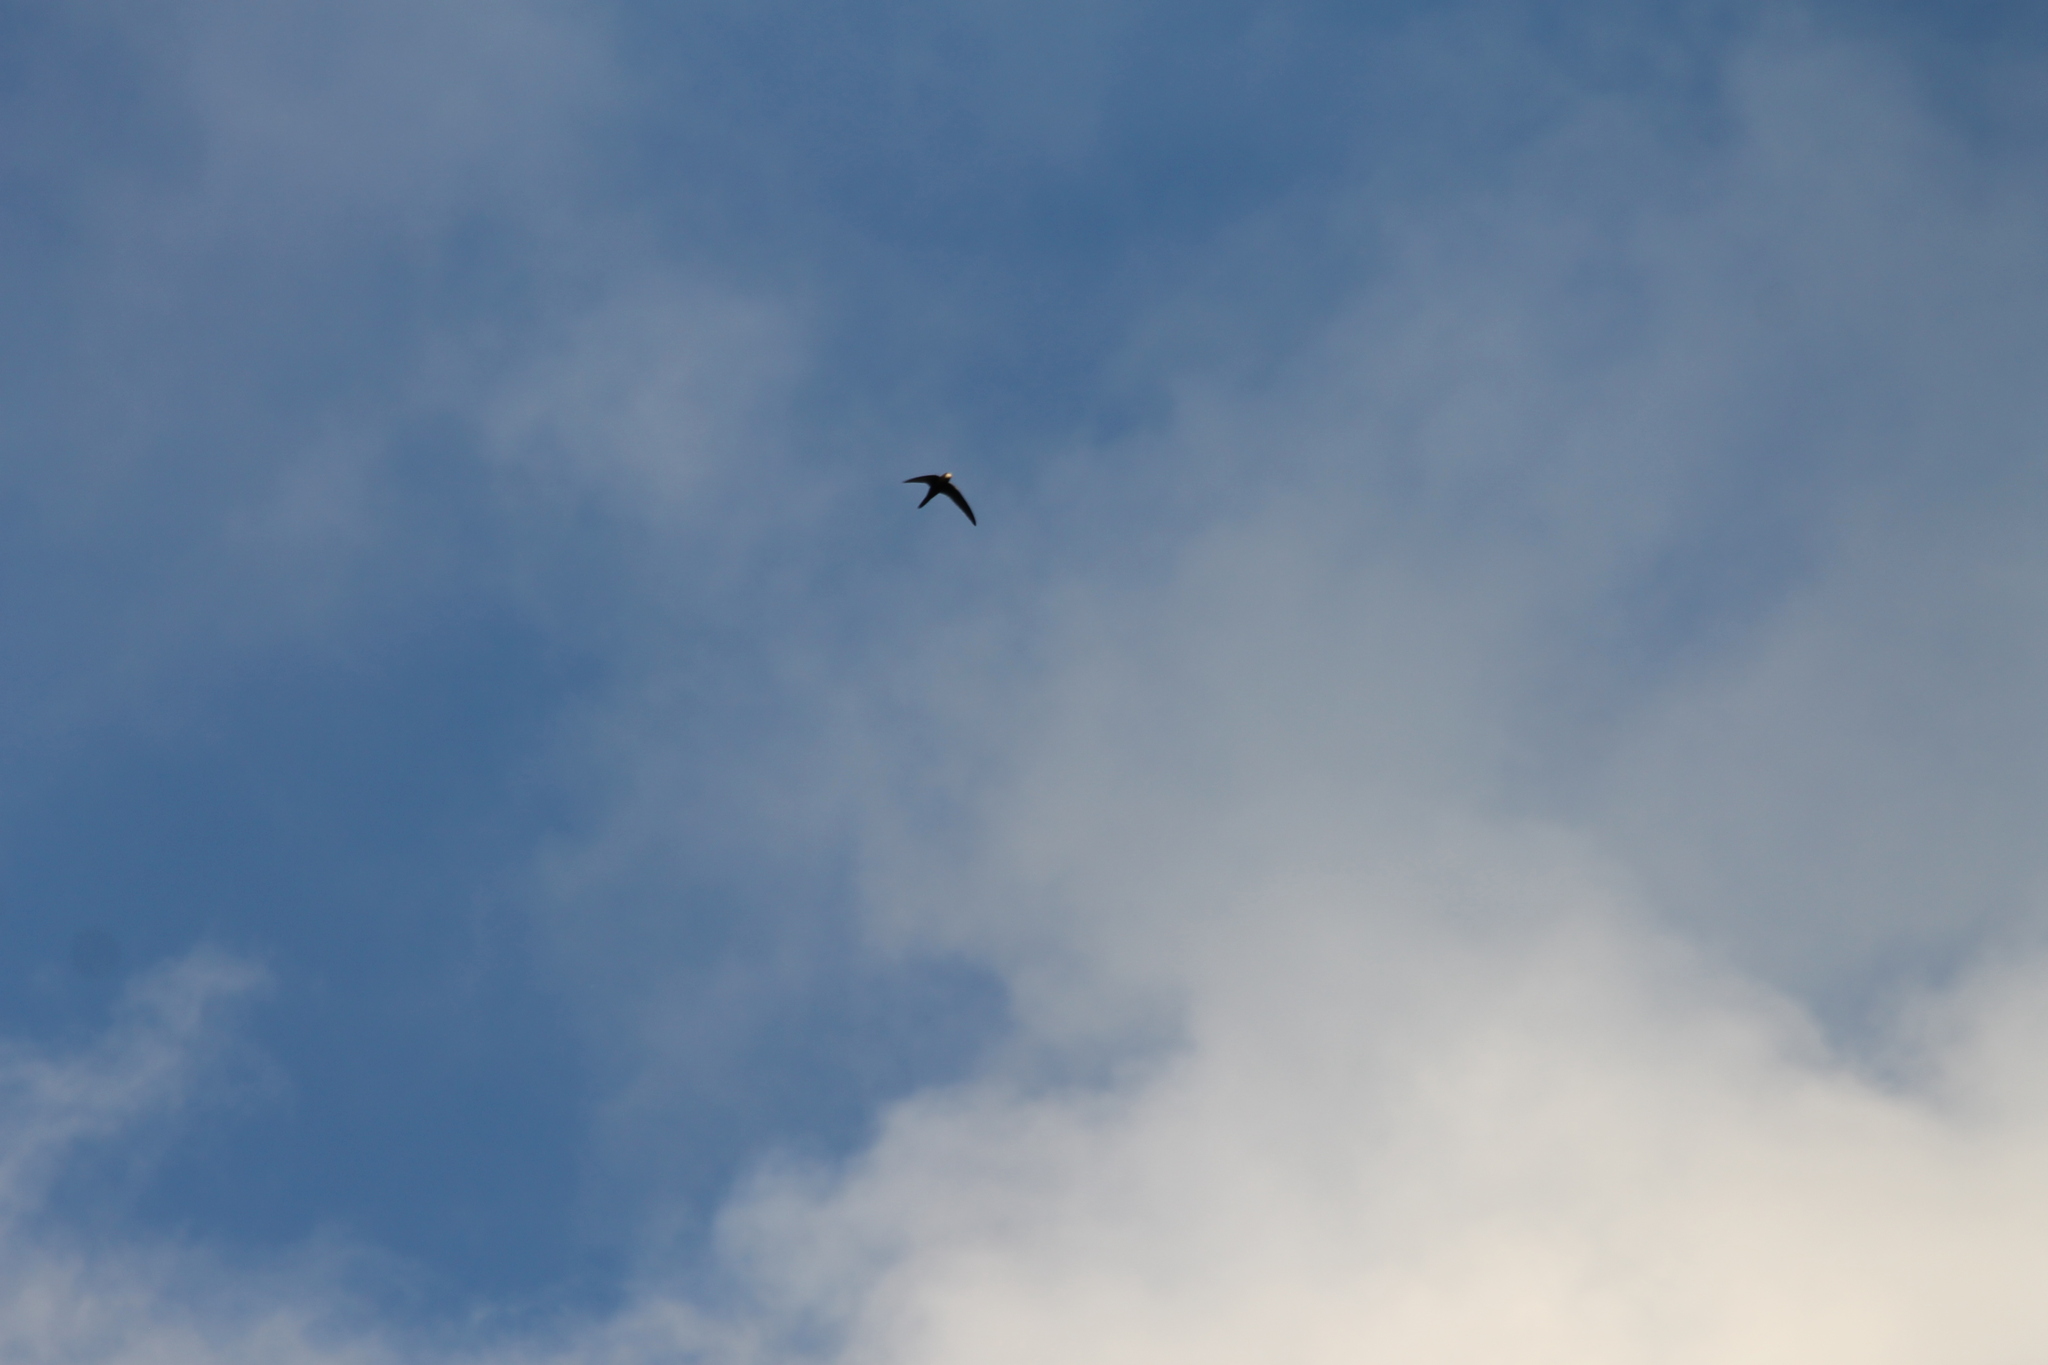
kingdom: Animalia
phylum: Chordata
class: Aves
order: Apodiformes
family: Apodidae
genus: Apus
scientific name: Apus apus
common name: Common swift
